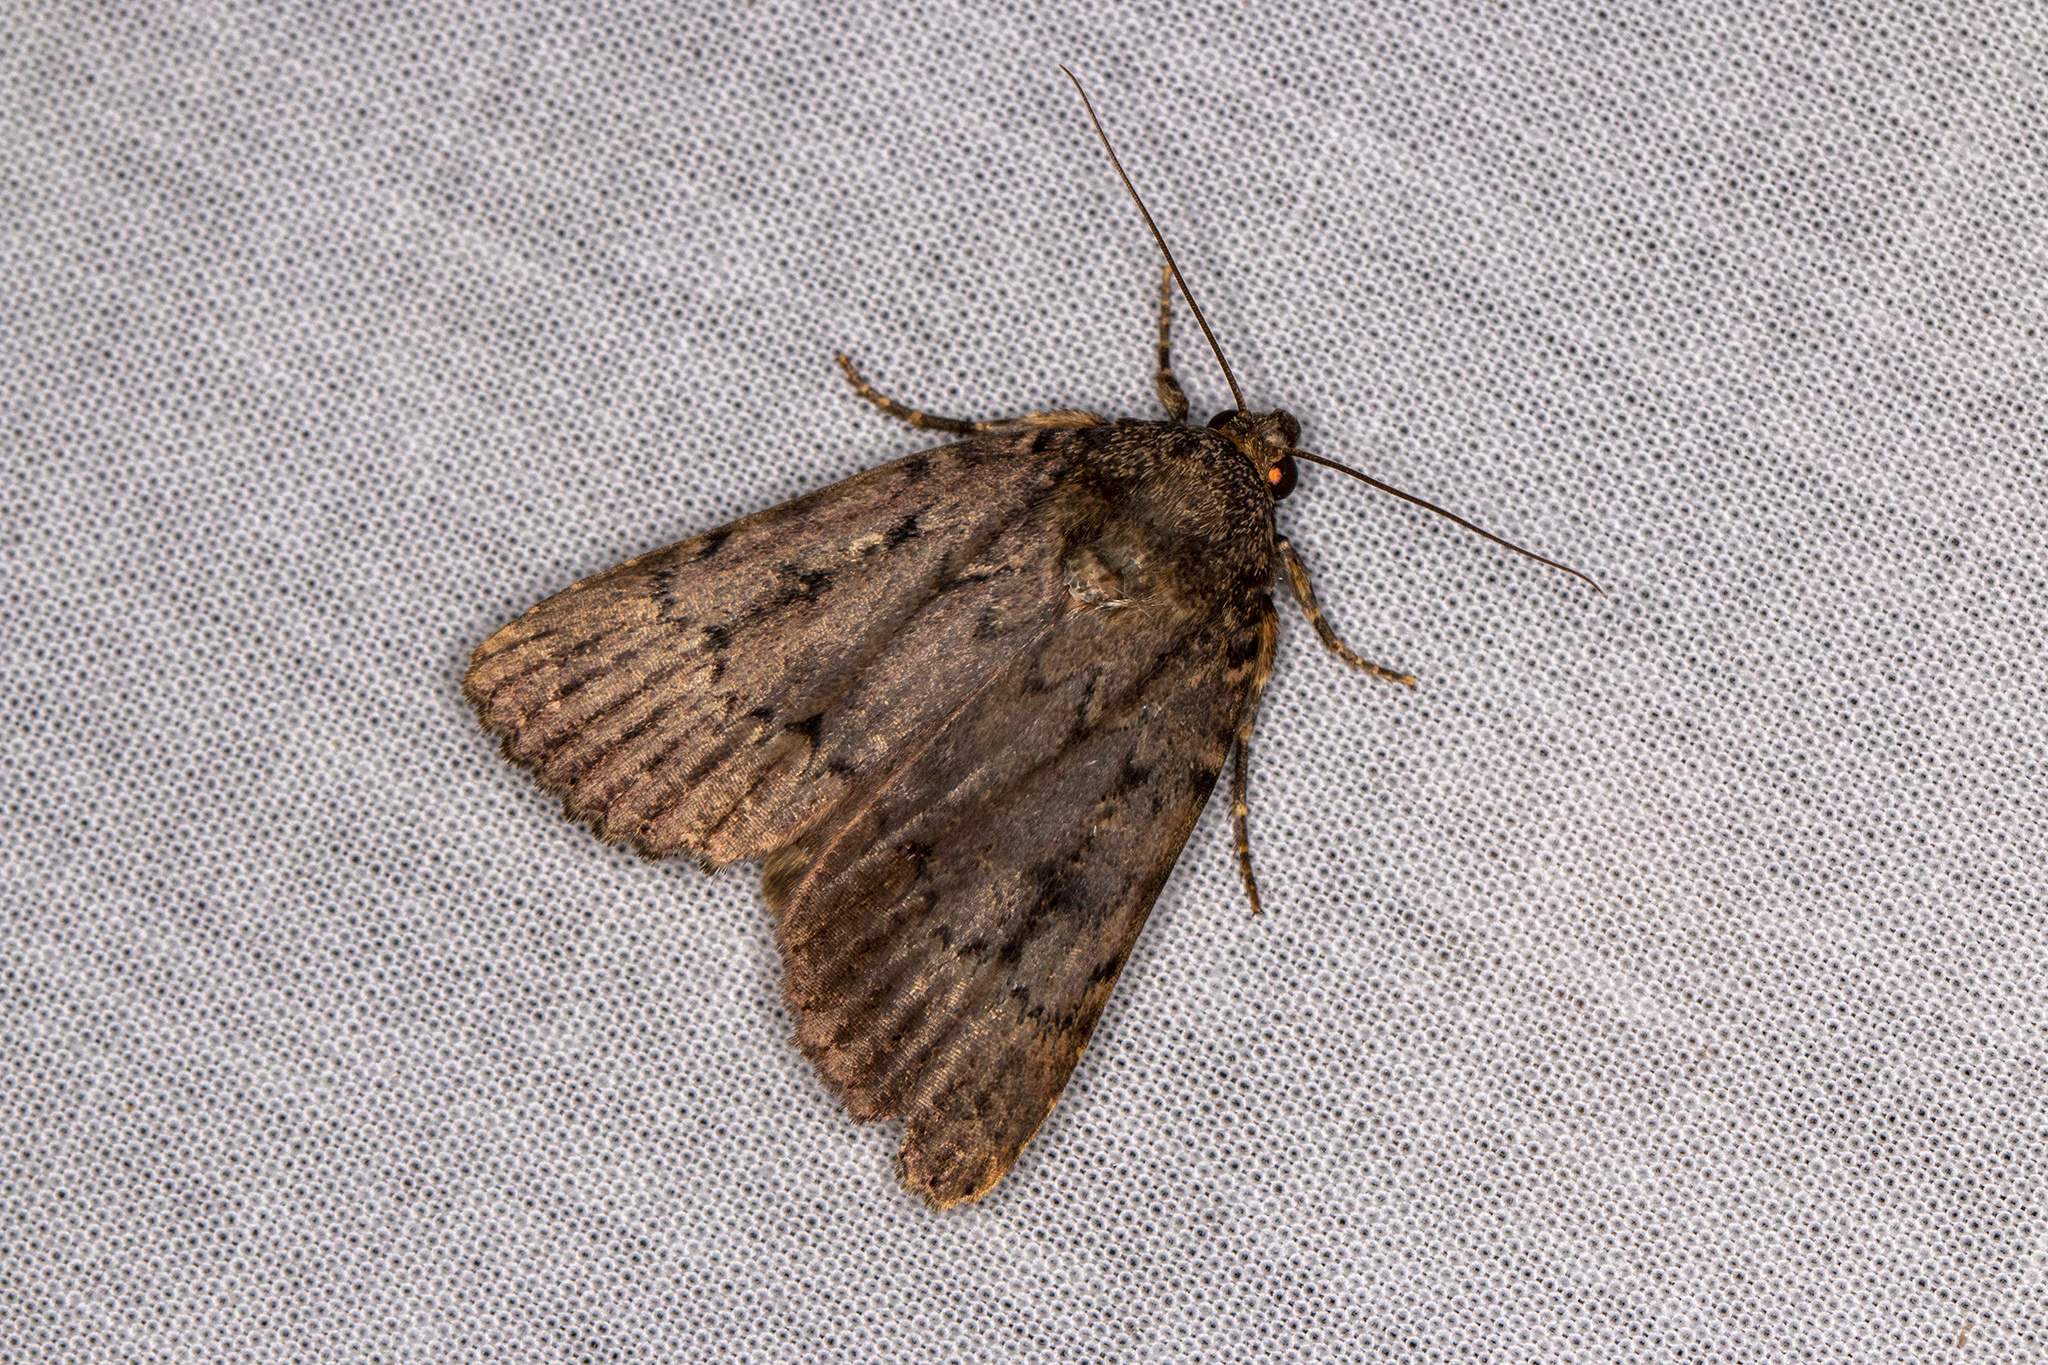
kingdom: Animalia
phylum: Arthropoda
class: Insecta
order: Lepidoptera
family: Noctuidae
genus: Amphipyra
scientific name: Amphipyra pyramidea
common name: Copper underwing
